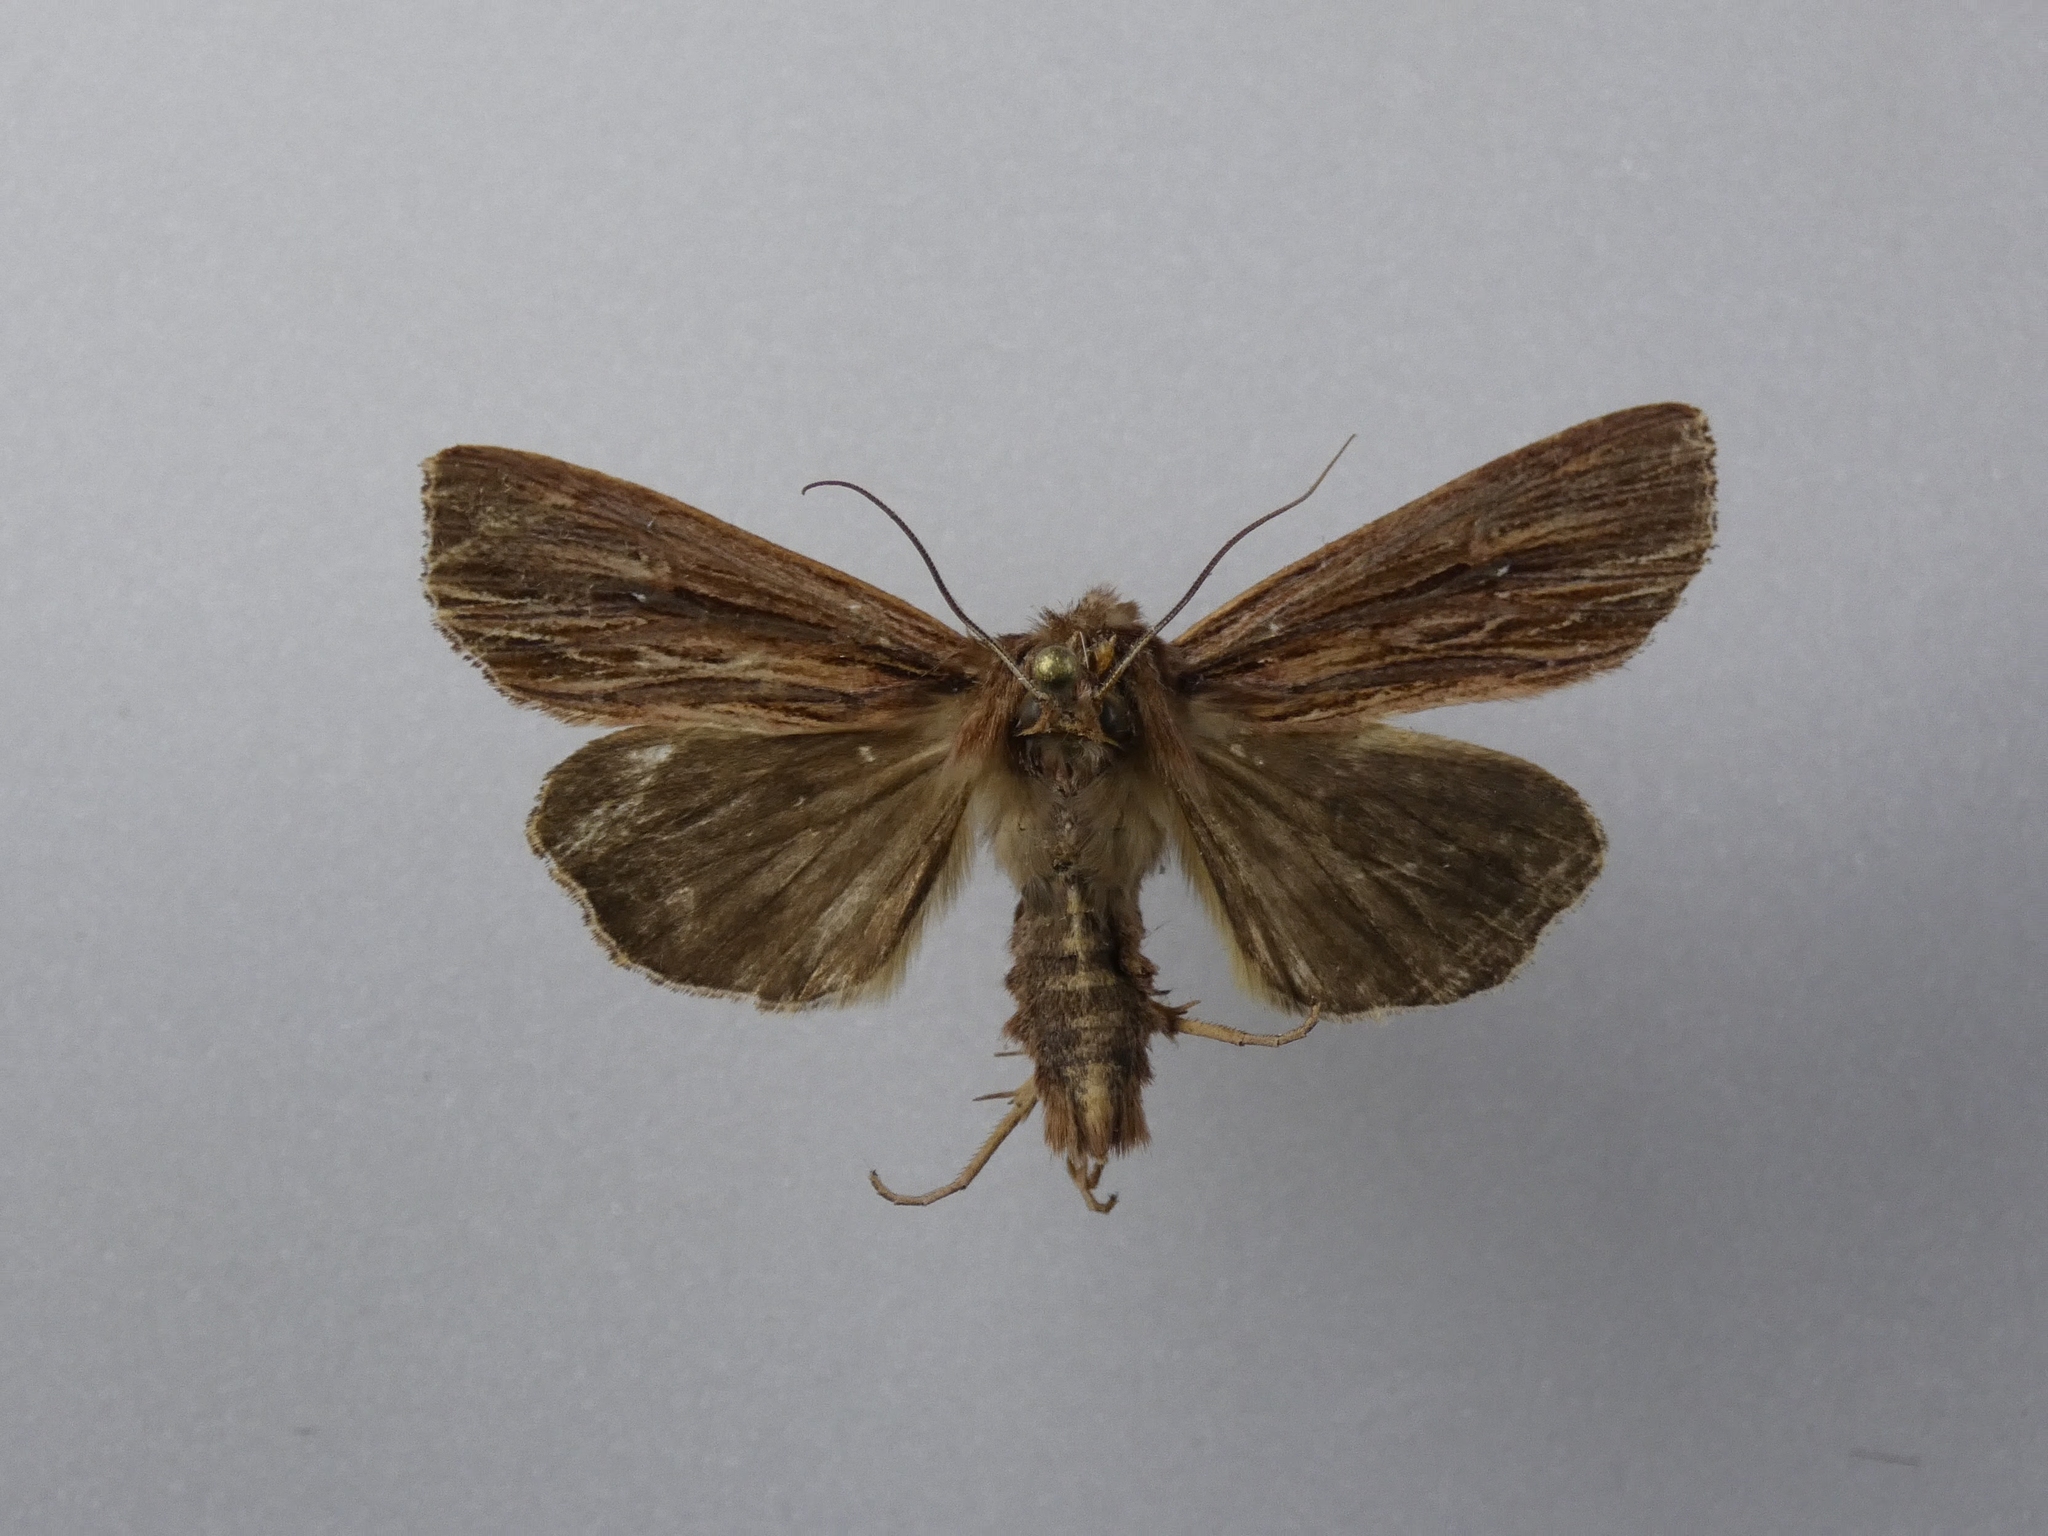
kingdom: Animalia
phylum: Arthropoda
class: Insecta
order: Lepidoptera
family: Noctuidae
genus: Ichneutica
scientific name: Ichneutica
